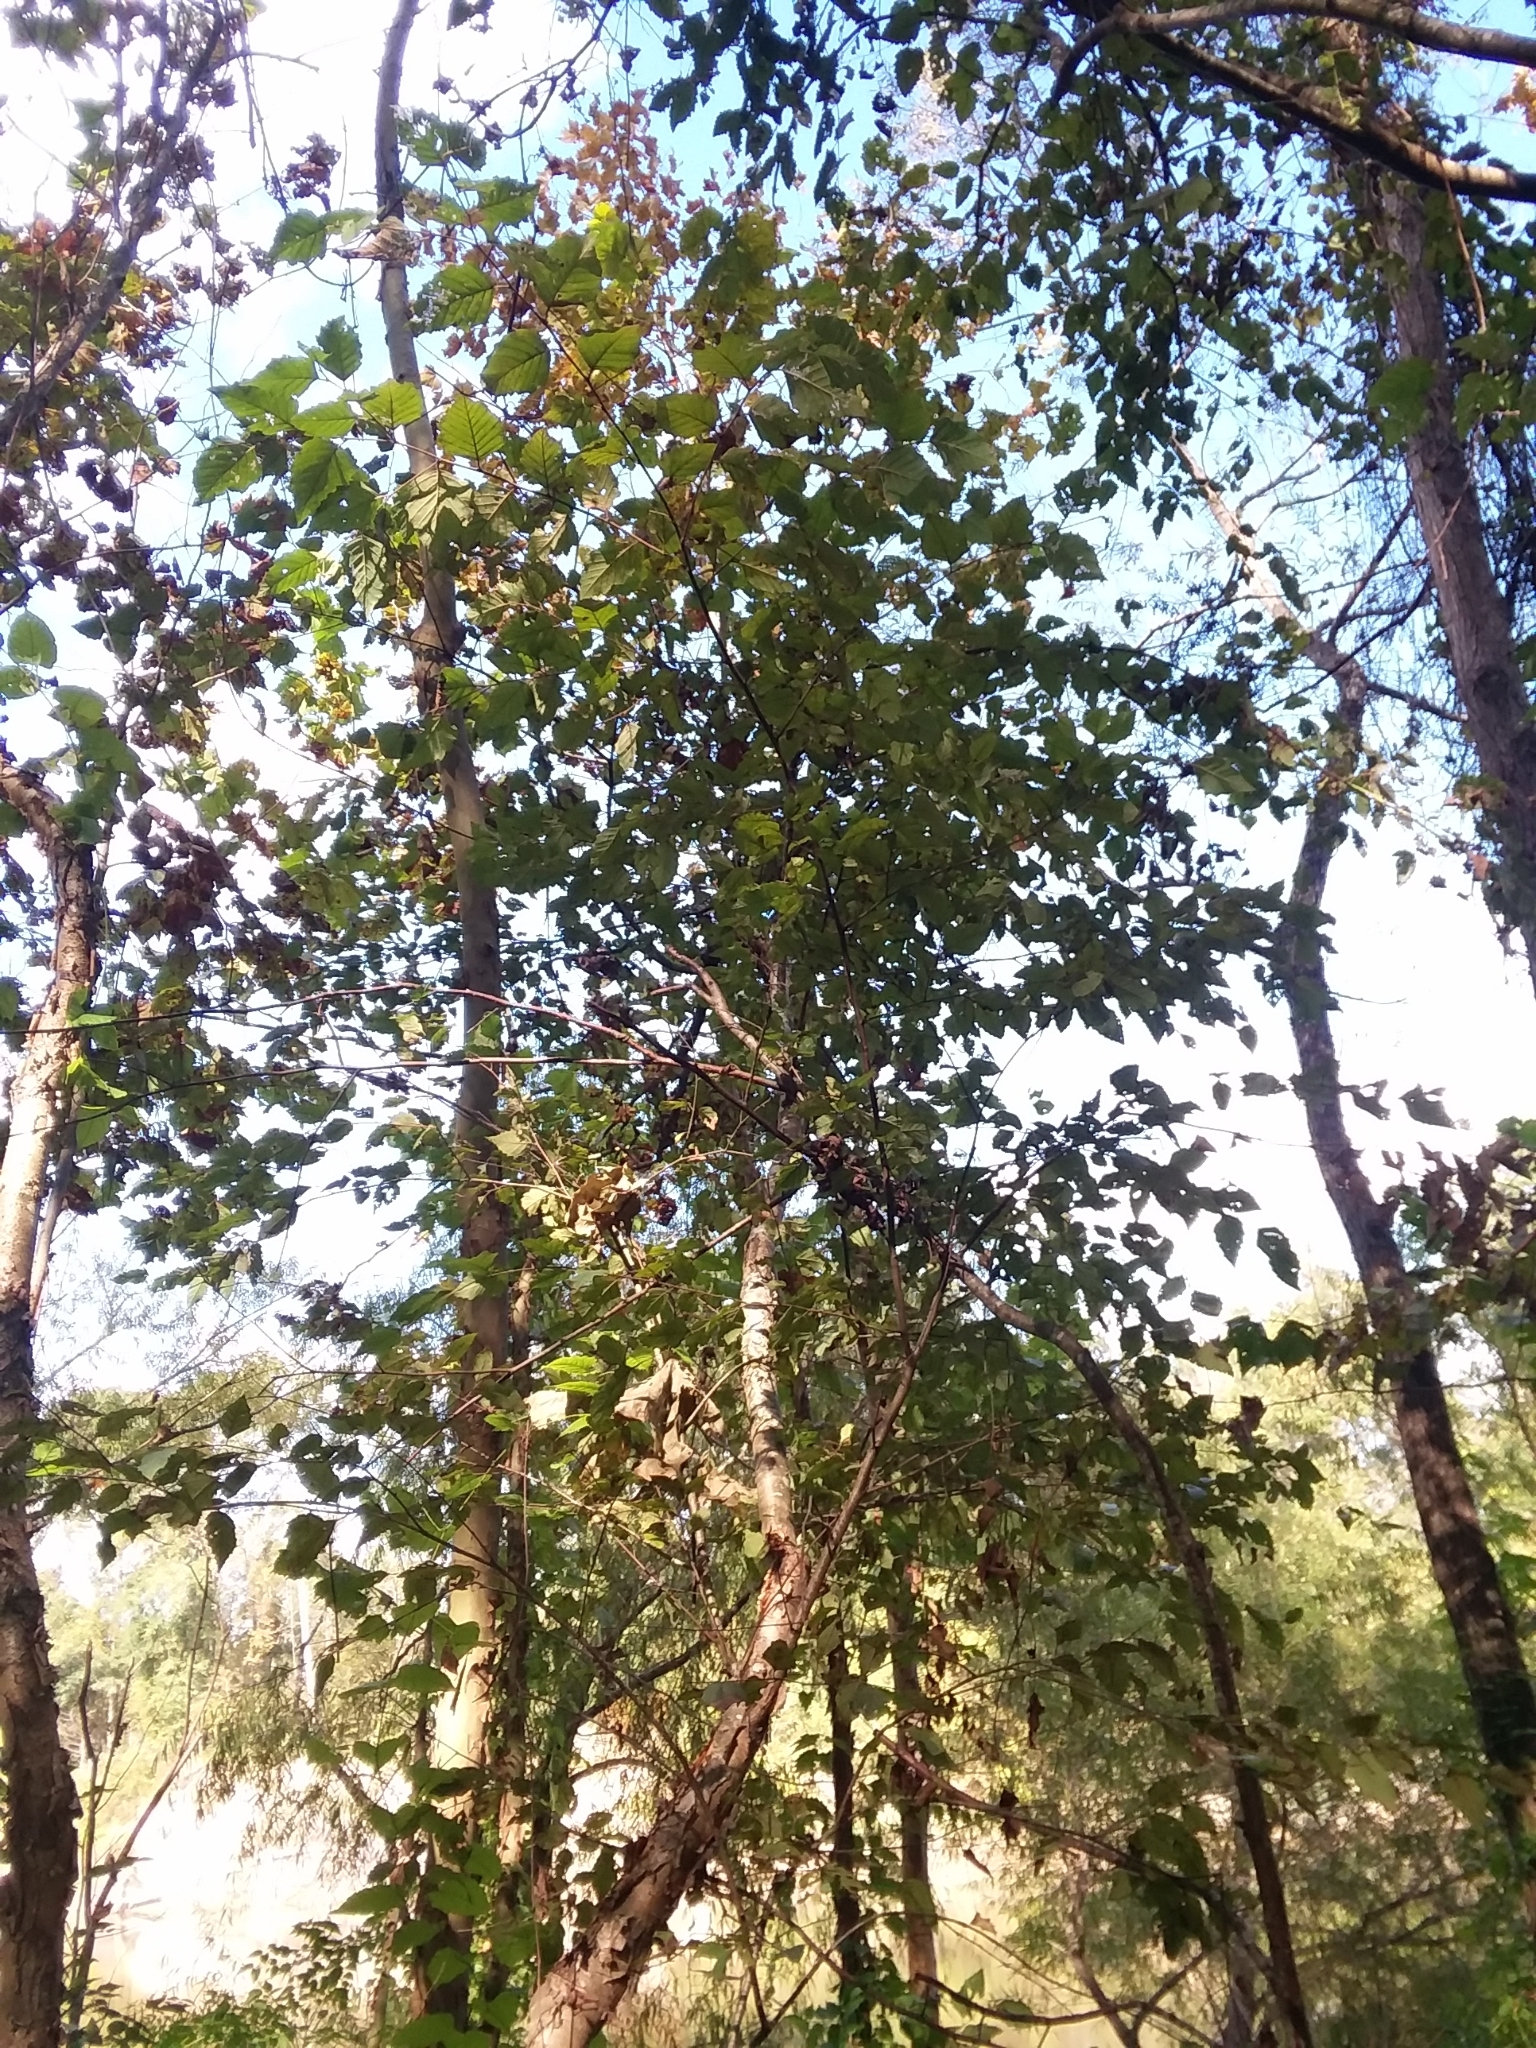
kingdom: Plantae
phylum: Tracheophyta
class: Magnoliopsida
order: Fagales
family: Betulaceae
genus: Betula
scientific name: Betula nigra
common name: Black birch
